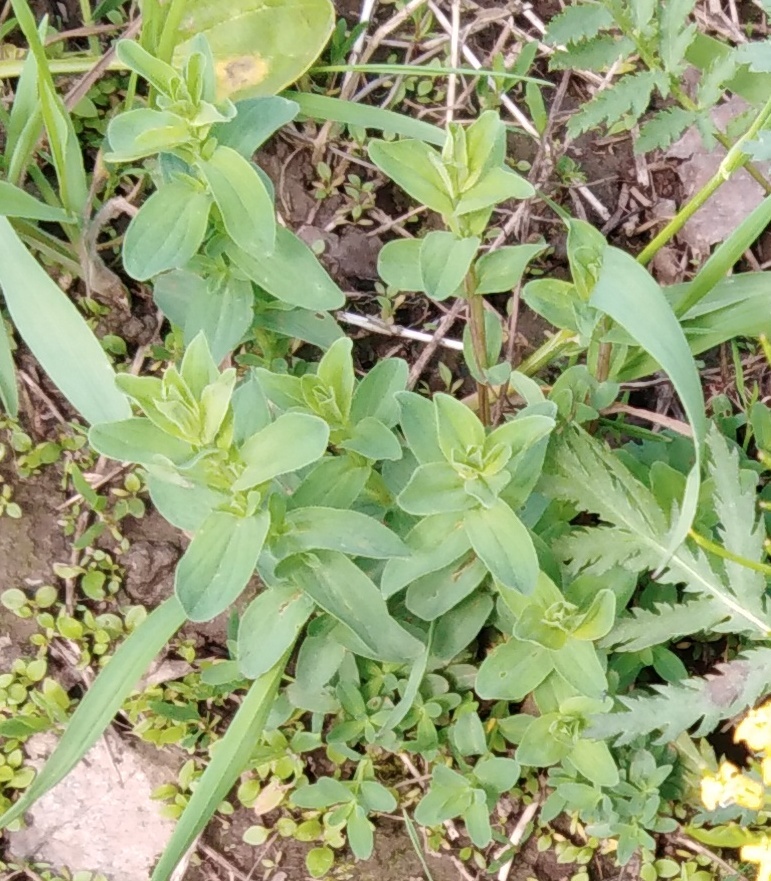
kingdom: Plantae
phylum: Tracheophyta
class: Magnoliopsida
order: Malpighiales
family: Hypericaceae
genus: Hypericum
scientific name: Hypericum perforatum
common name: Common st. johnswort
